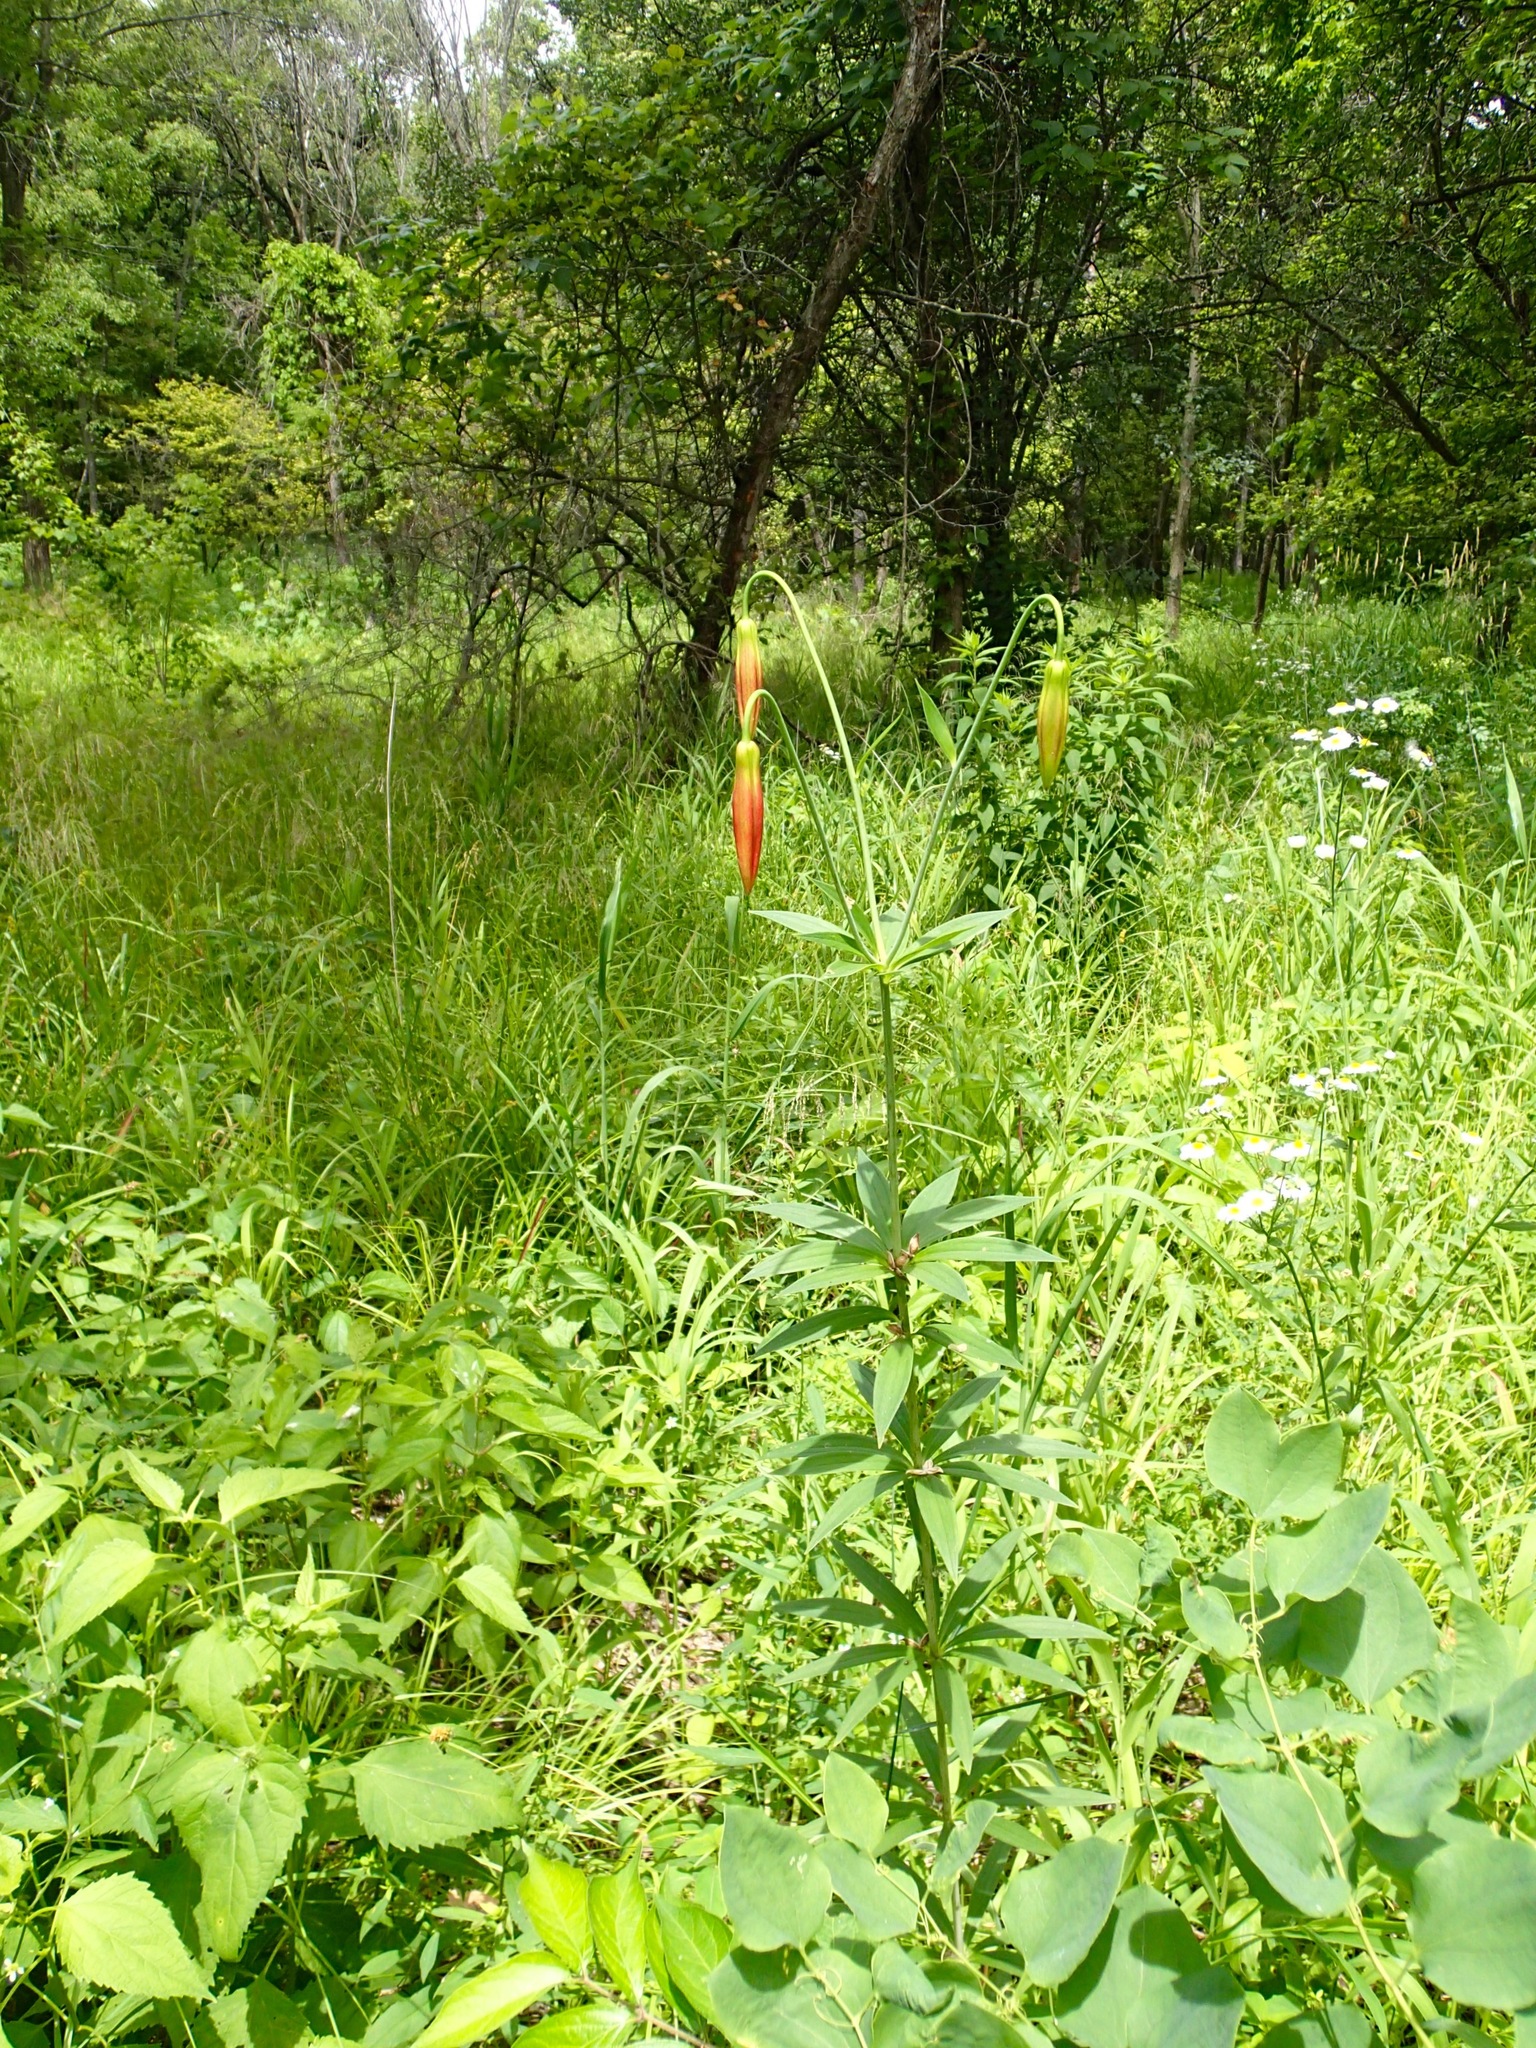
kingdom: Plantae
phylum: Tracheophyta
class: Liliopsida
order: Liliales
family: Liliaceae
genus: Lilium
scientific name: Lilium michiganense
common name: Michigan lily
